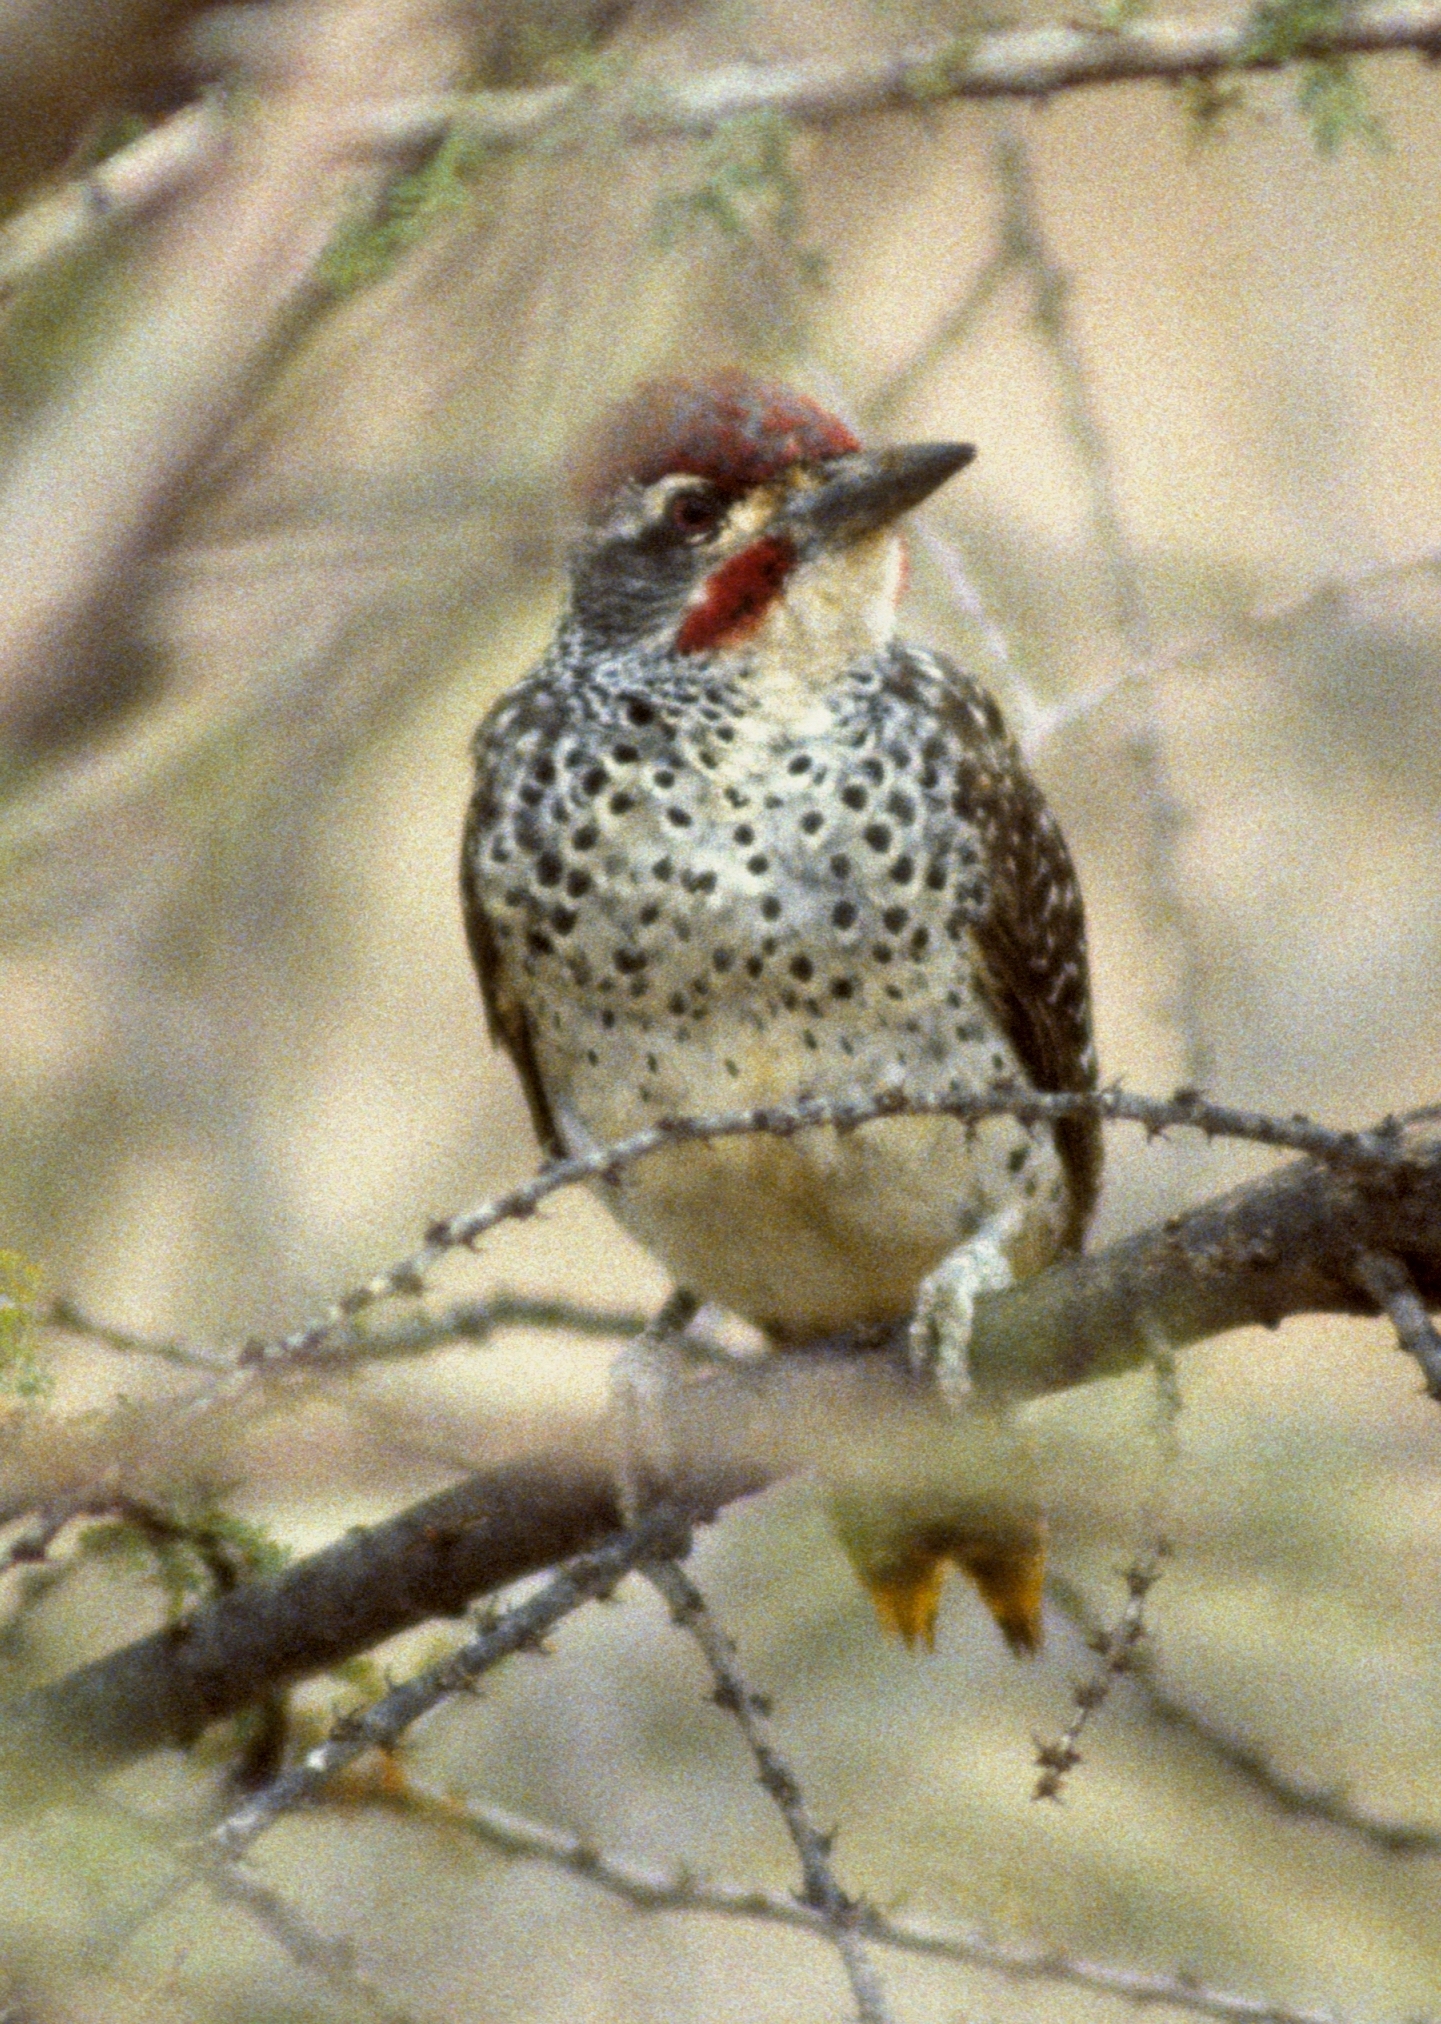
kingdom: Animalia
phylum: Chordata
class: Aves
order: Piciformes
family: Picidae
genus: Campethera
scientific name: Campethera nubica
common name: Nubian woodpecker
